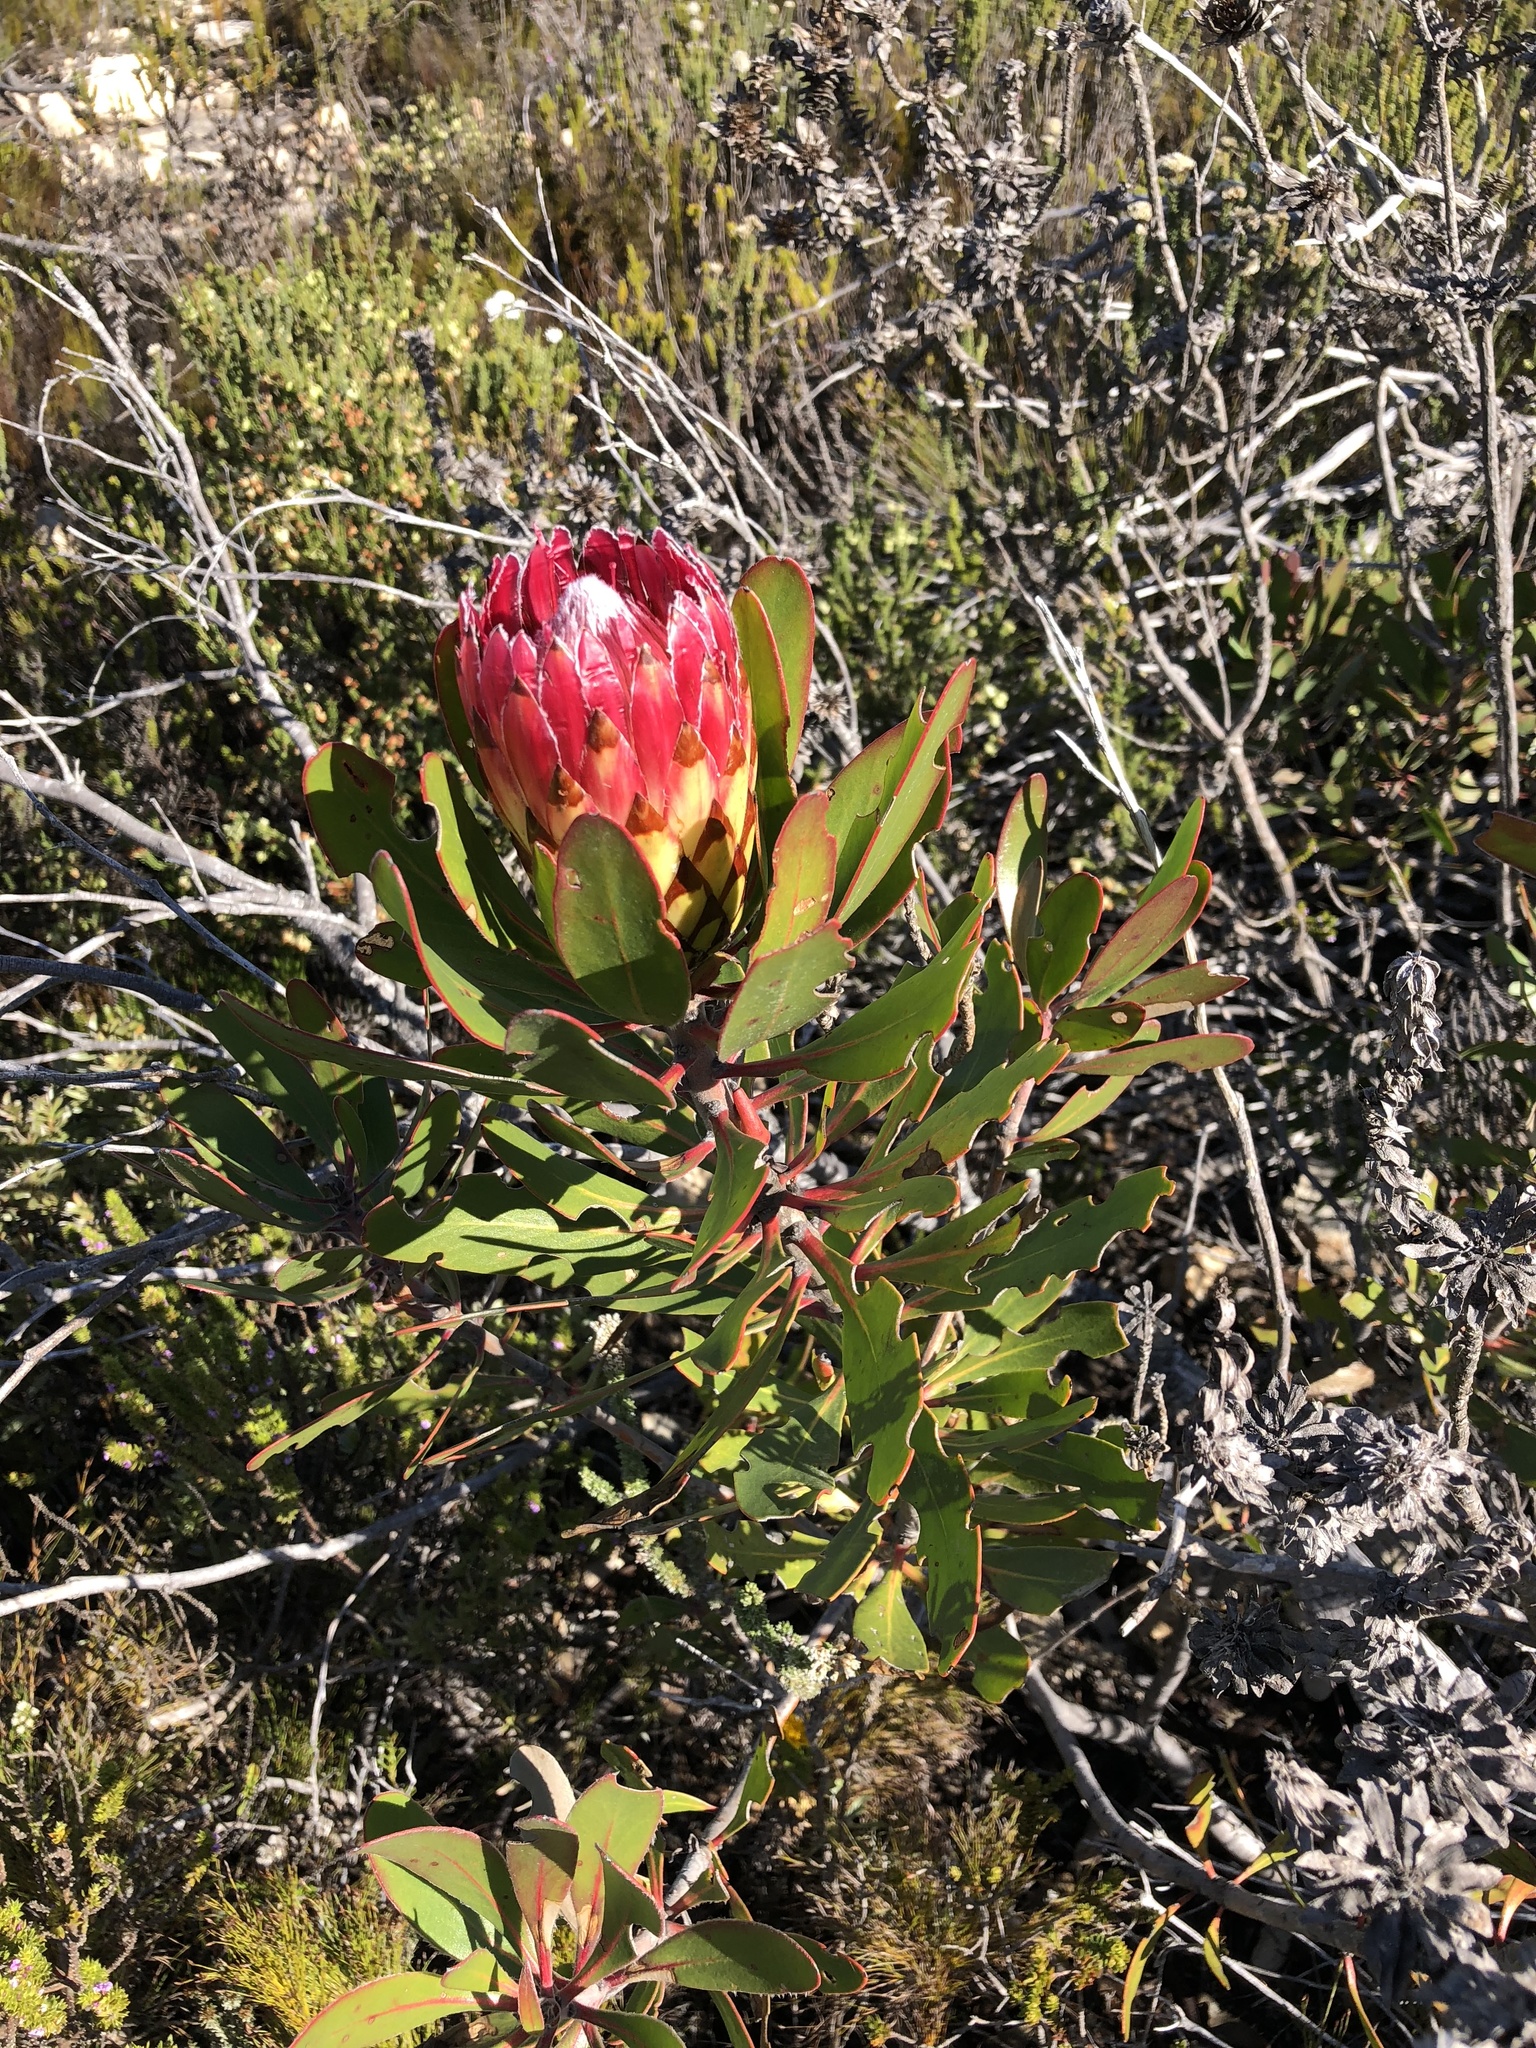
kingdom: Plantae
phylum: Tracheophyta
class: Magnoliopsida
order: Proteales
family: Proteaceae
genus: Protea
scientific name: Protea obtusifolia
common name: Bredasdorp sugarbush
